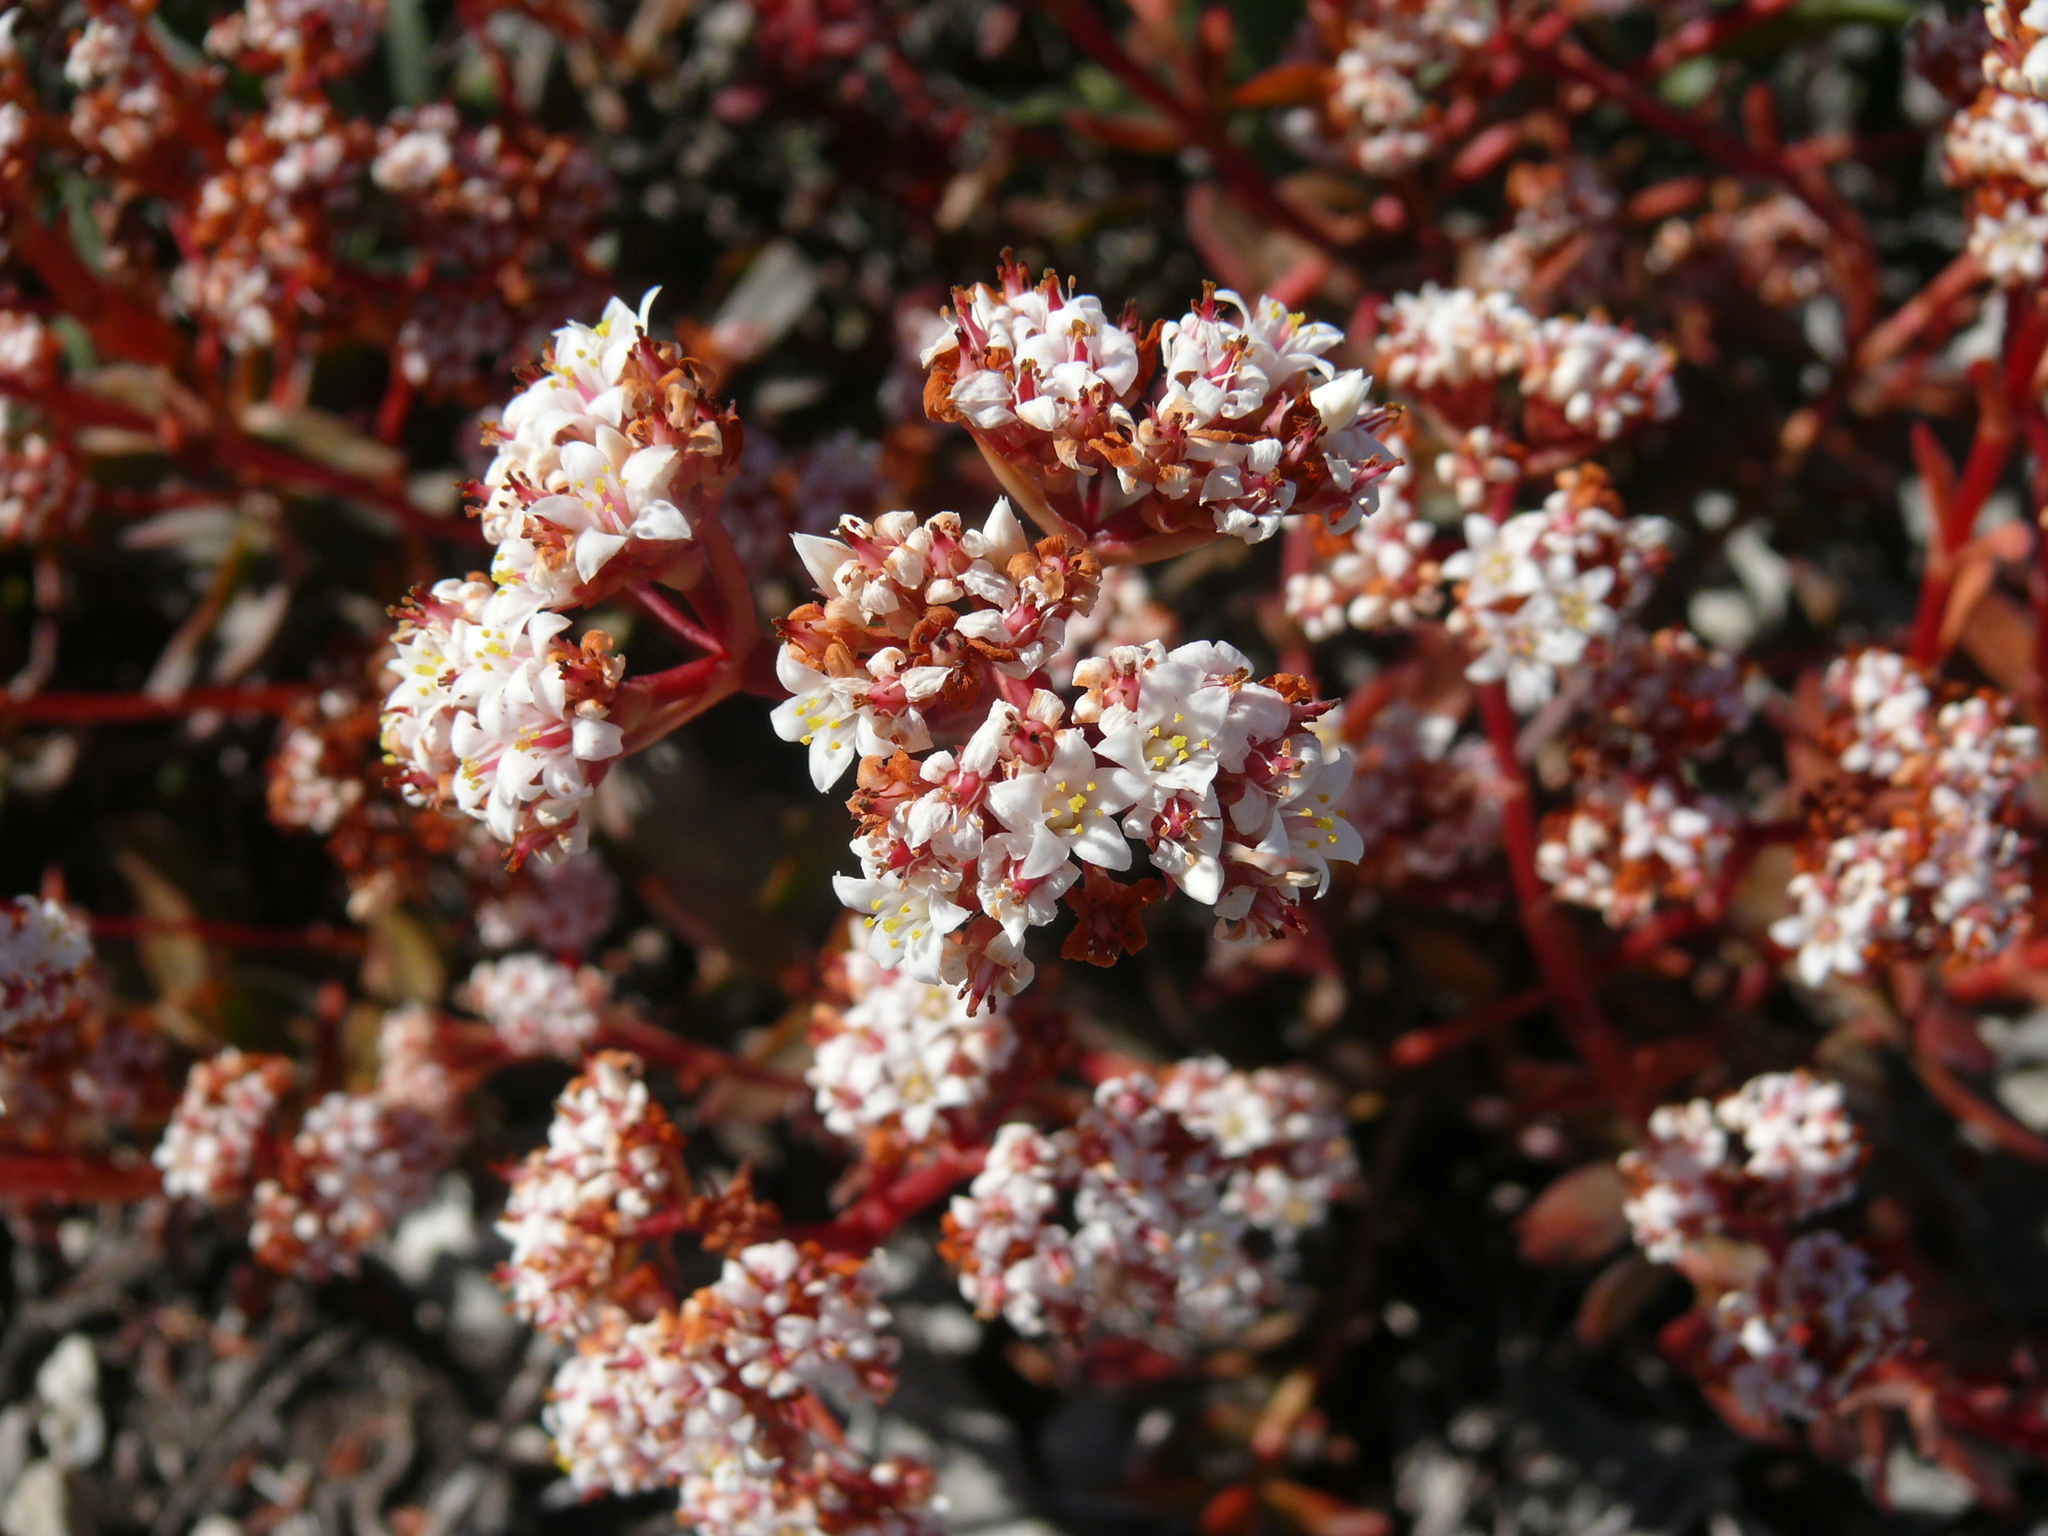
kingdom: Plantae
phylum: Tracheophyta
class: Magnoliopsida
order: Saxifragales
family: Crassulaceae
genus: Crassula
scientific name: Crassula rubricaulis
